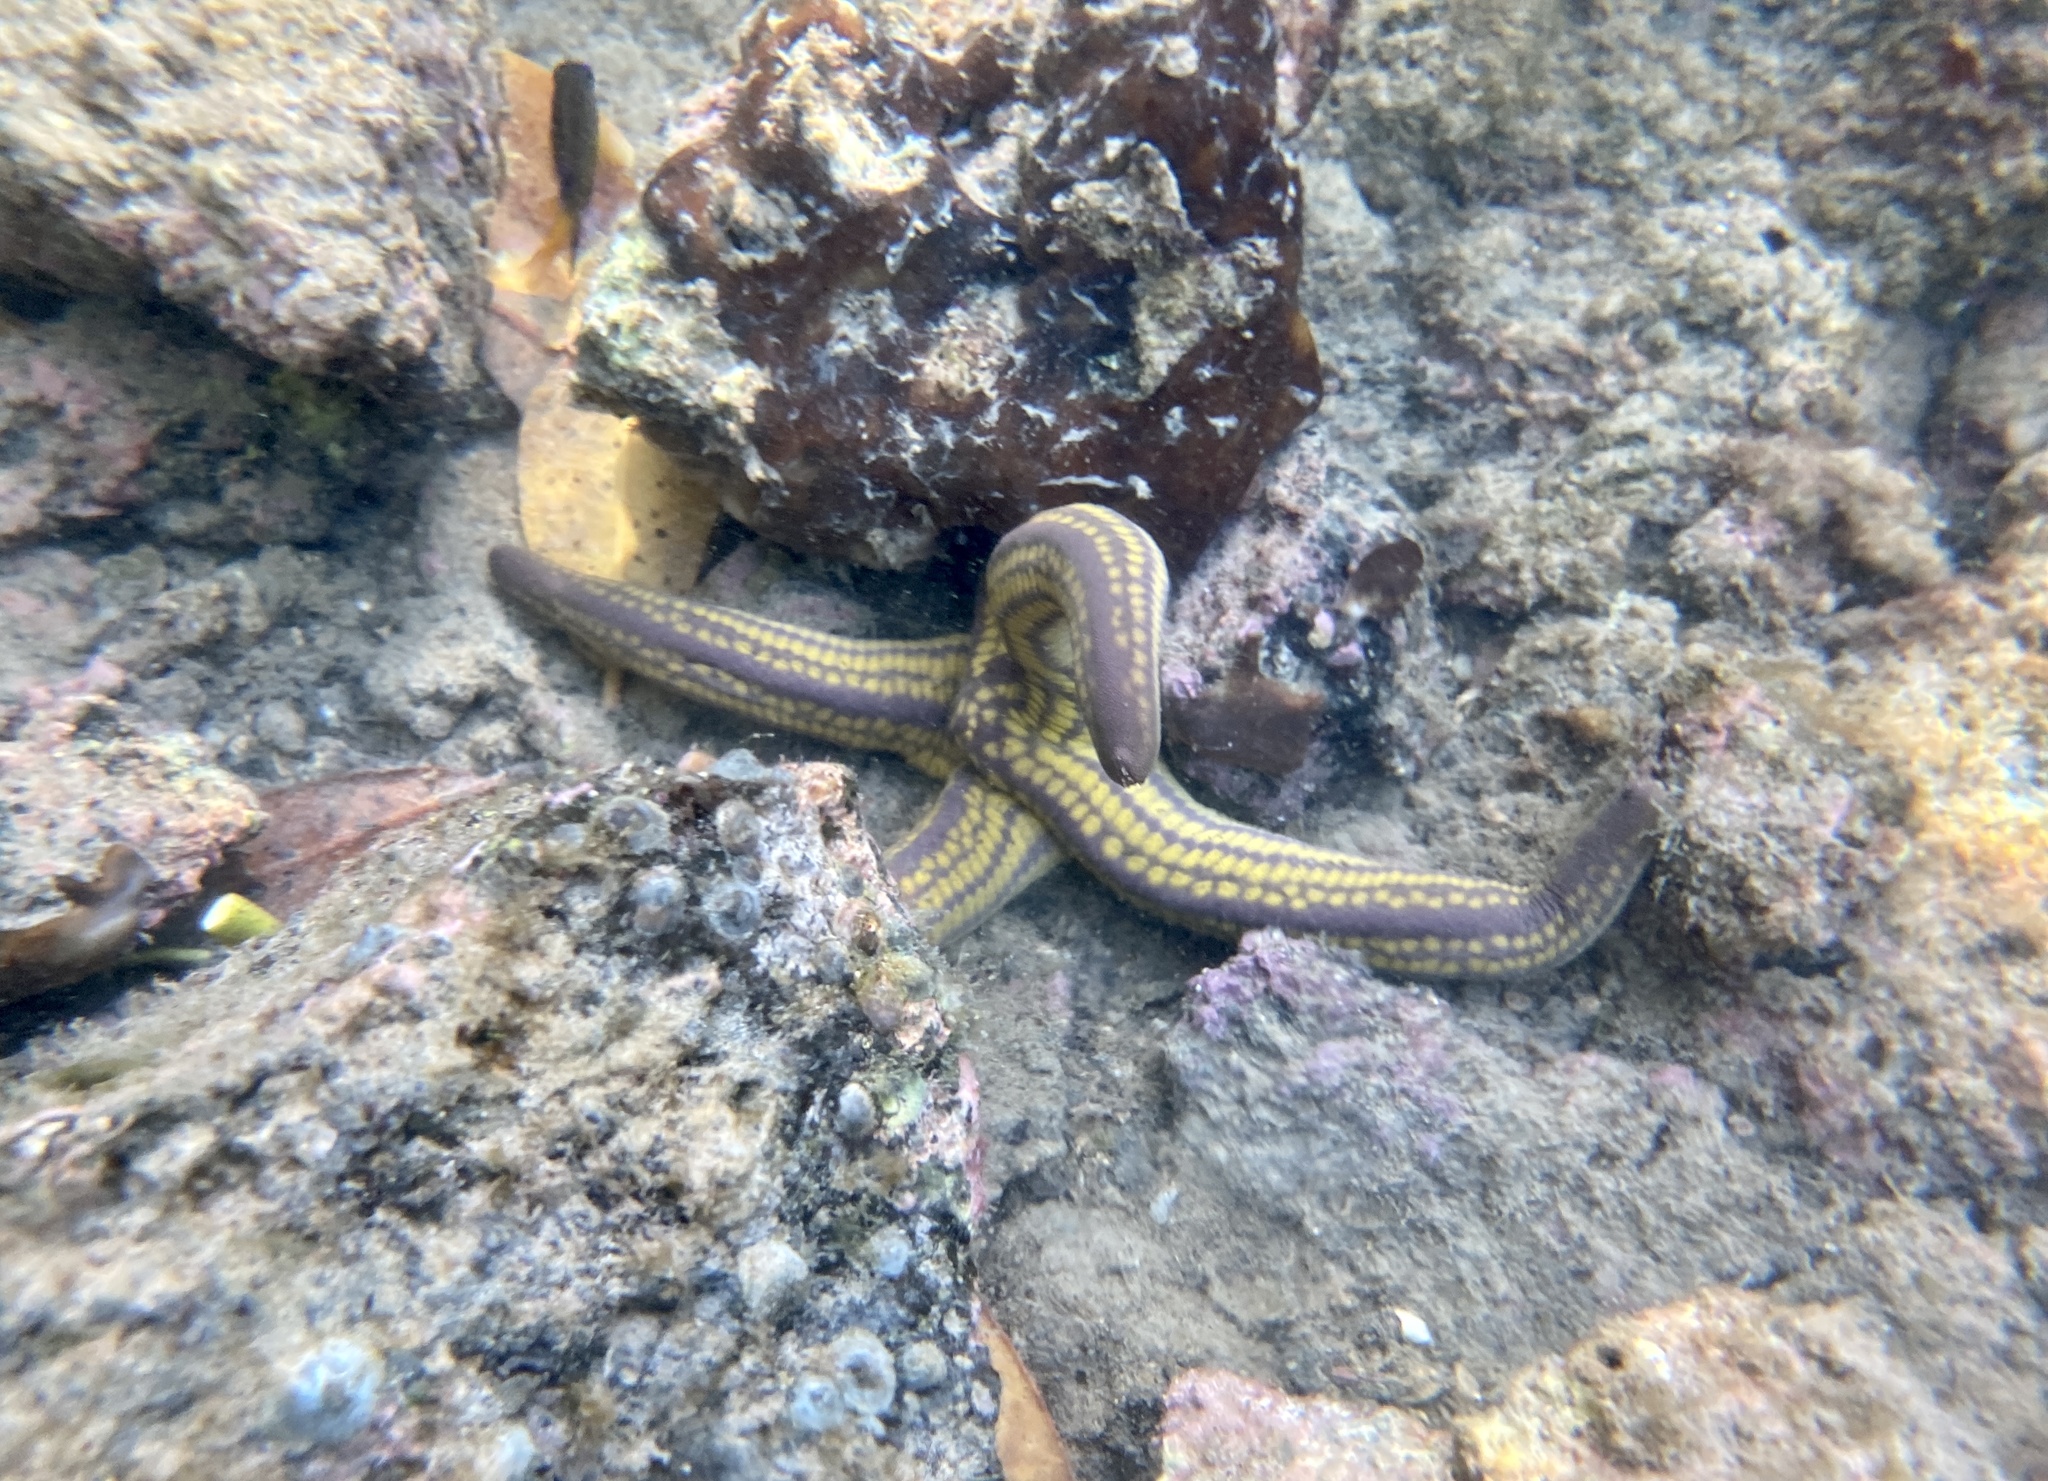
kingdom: Animalia
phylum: Echinodermata
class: Asteroidea
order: Valvatida
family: Ophidiasteridae
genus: Pharia
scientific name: Pharia pyramidata
